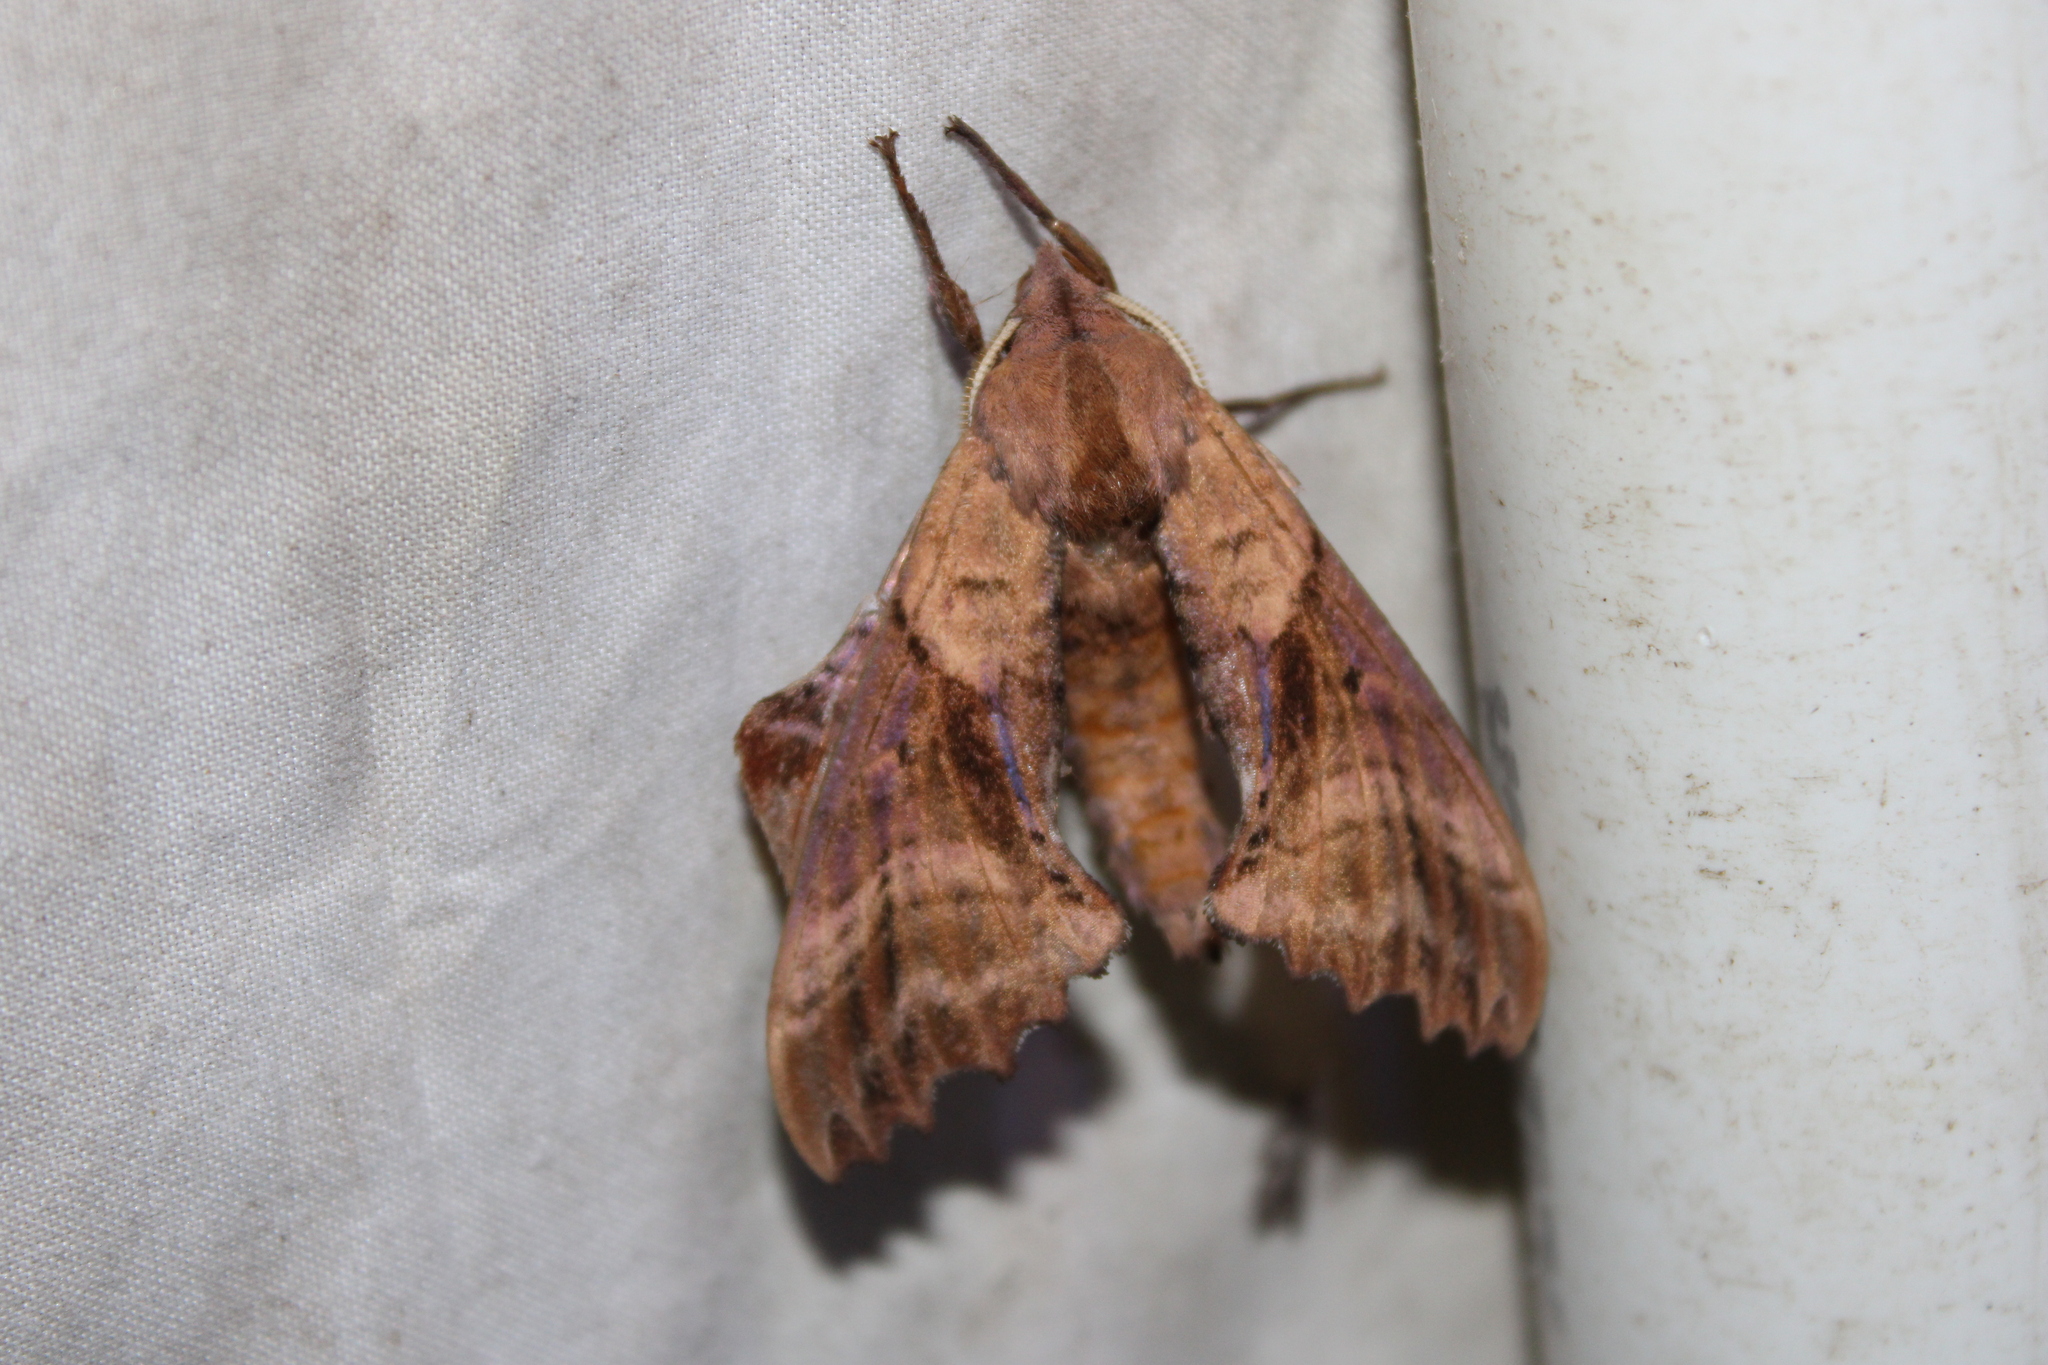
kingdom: Animalia
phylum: Arthropoda
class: Insecta
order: Lepidoptera
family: Sphingidae
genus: Paonias
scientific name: Paonias excaecata
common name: Blind-eyed sphinx
